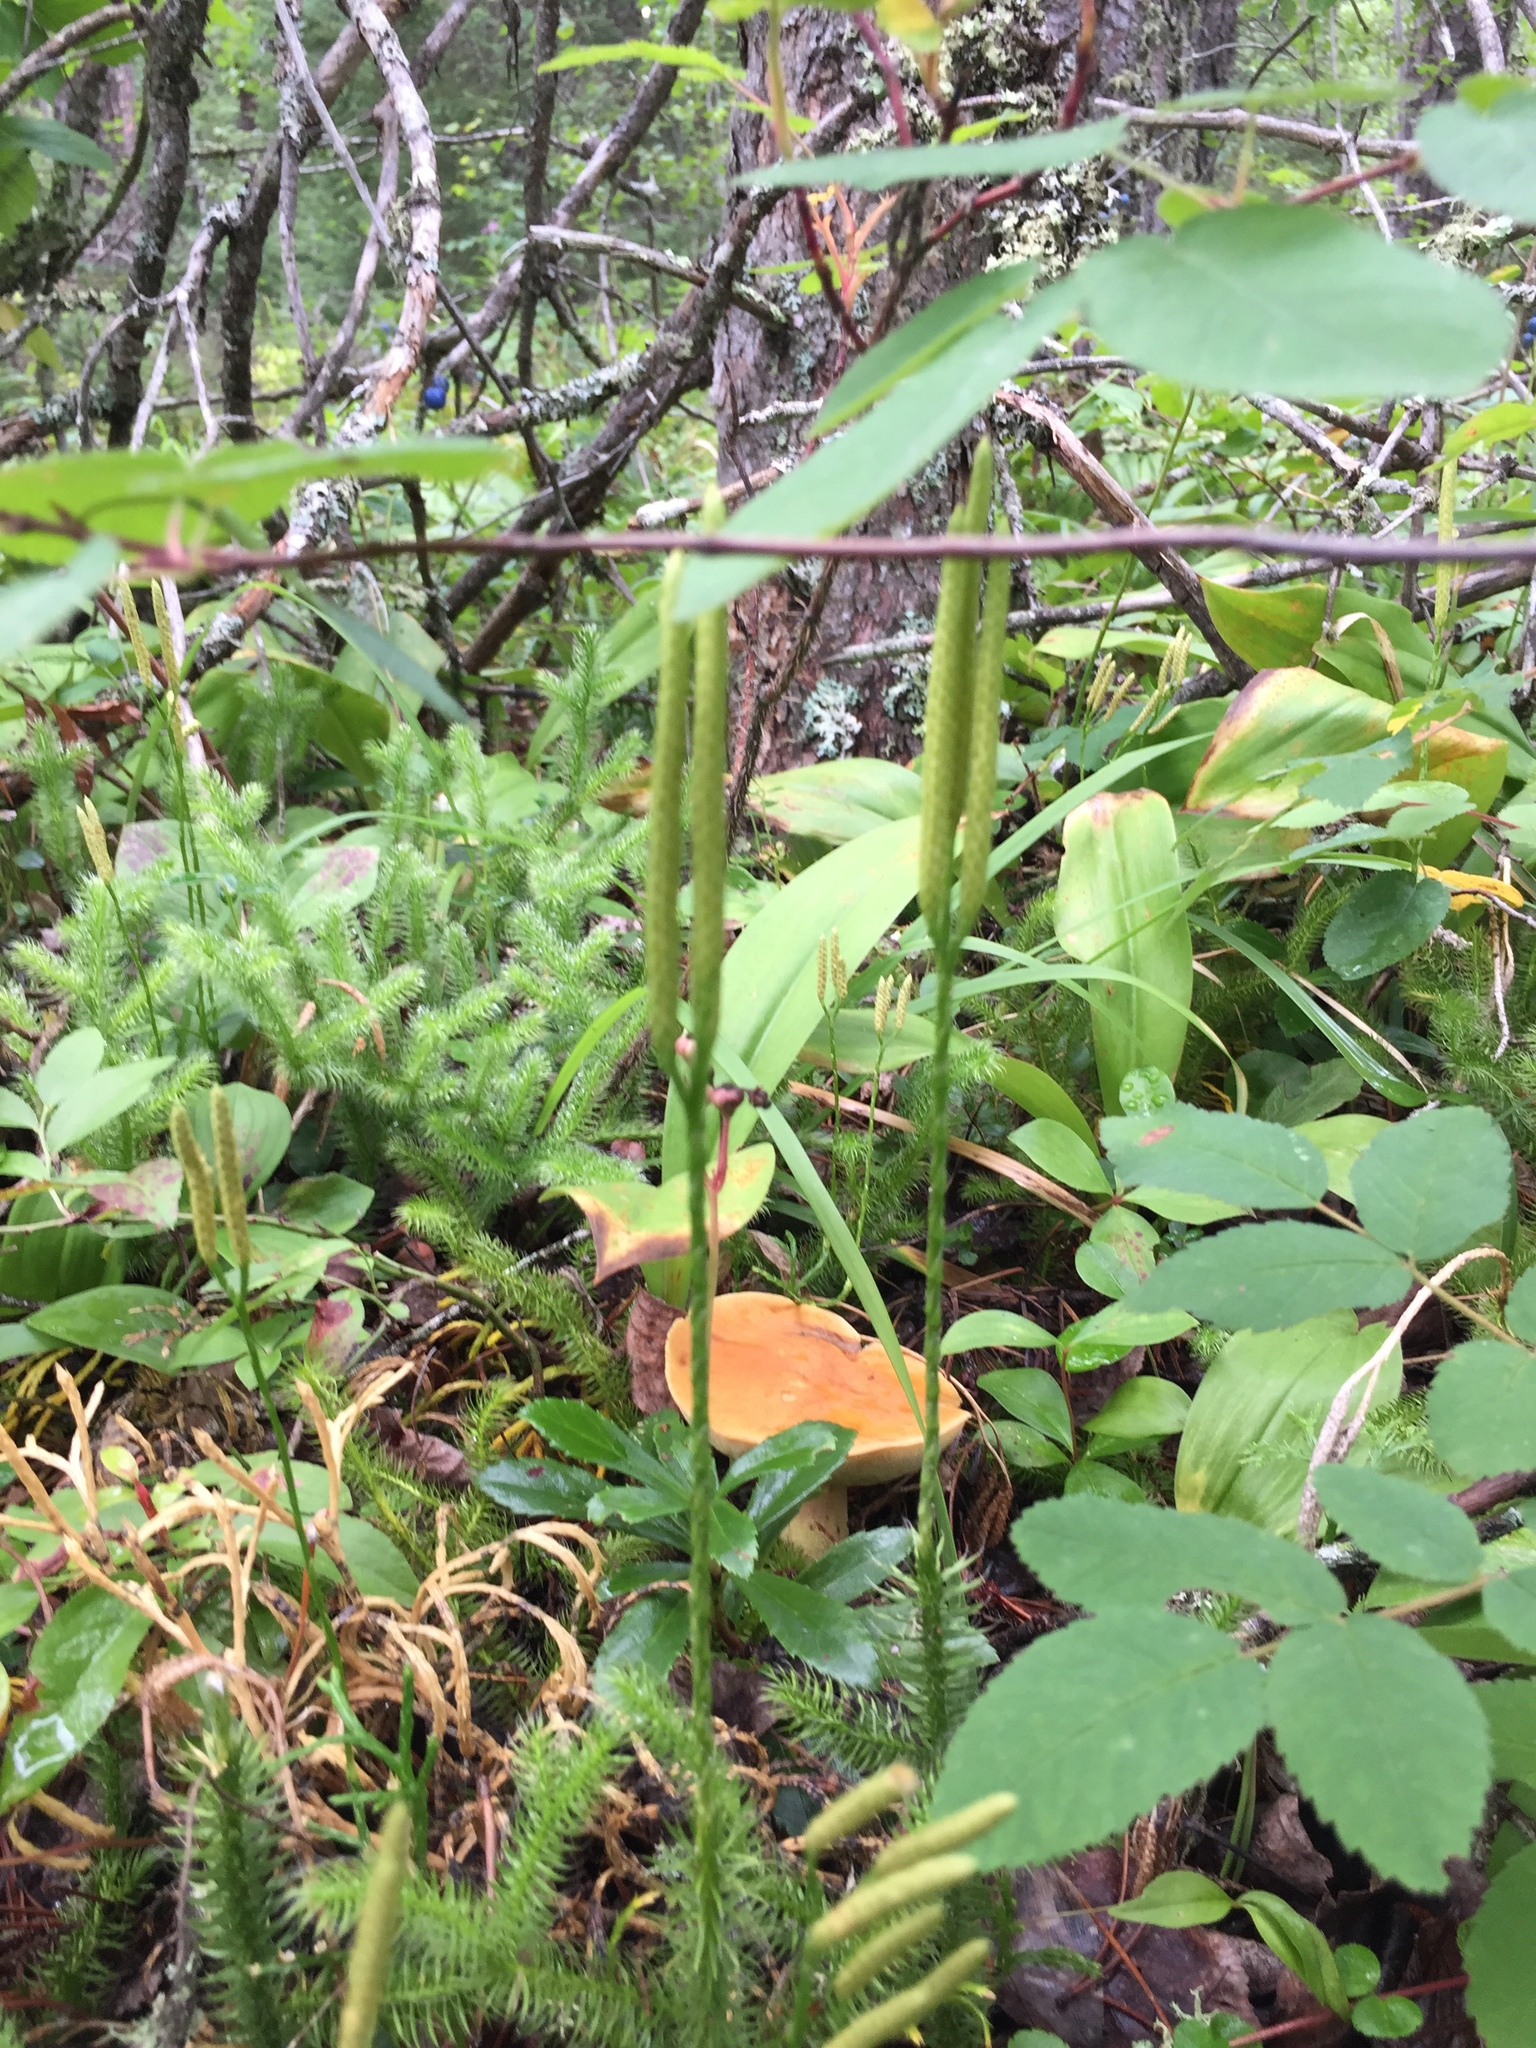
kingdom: Plantae
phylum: Tracheophyta
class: Lycopodiopsida
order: Lycopodiales
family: Lycopodiaceae
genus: Lycopodium
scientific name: Lycopodium clavatum
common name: Stag's-horn clubmoss
